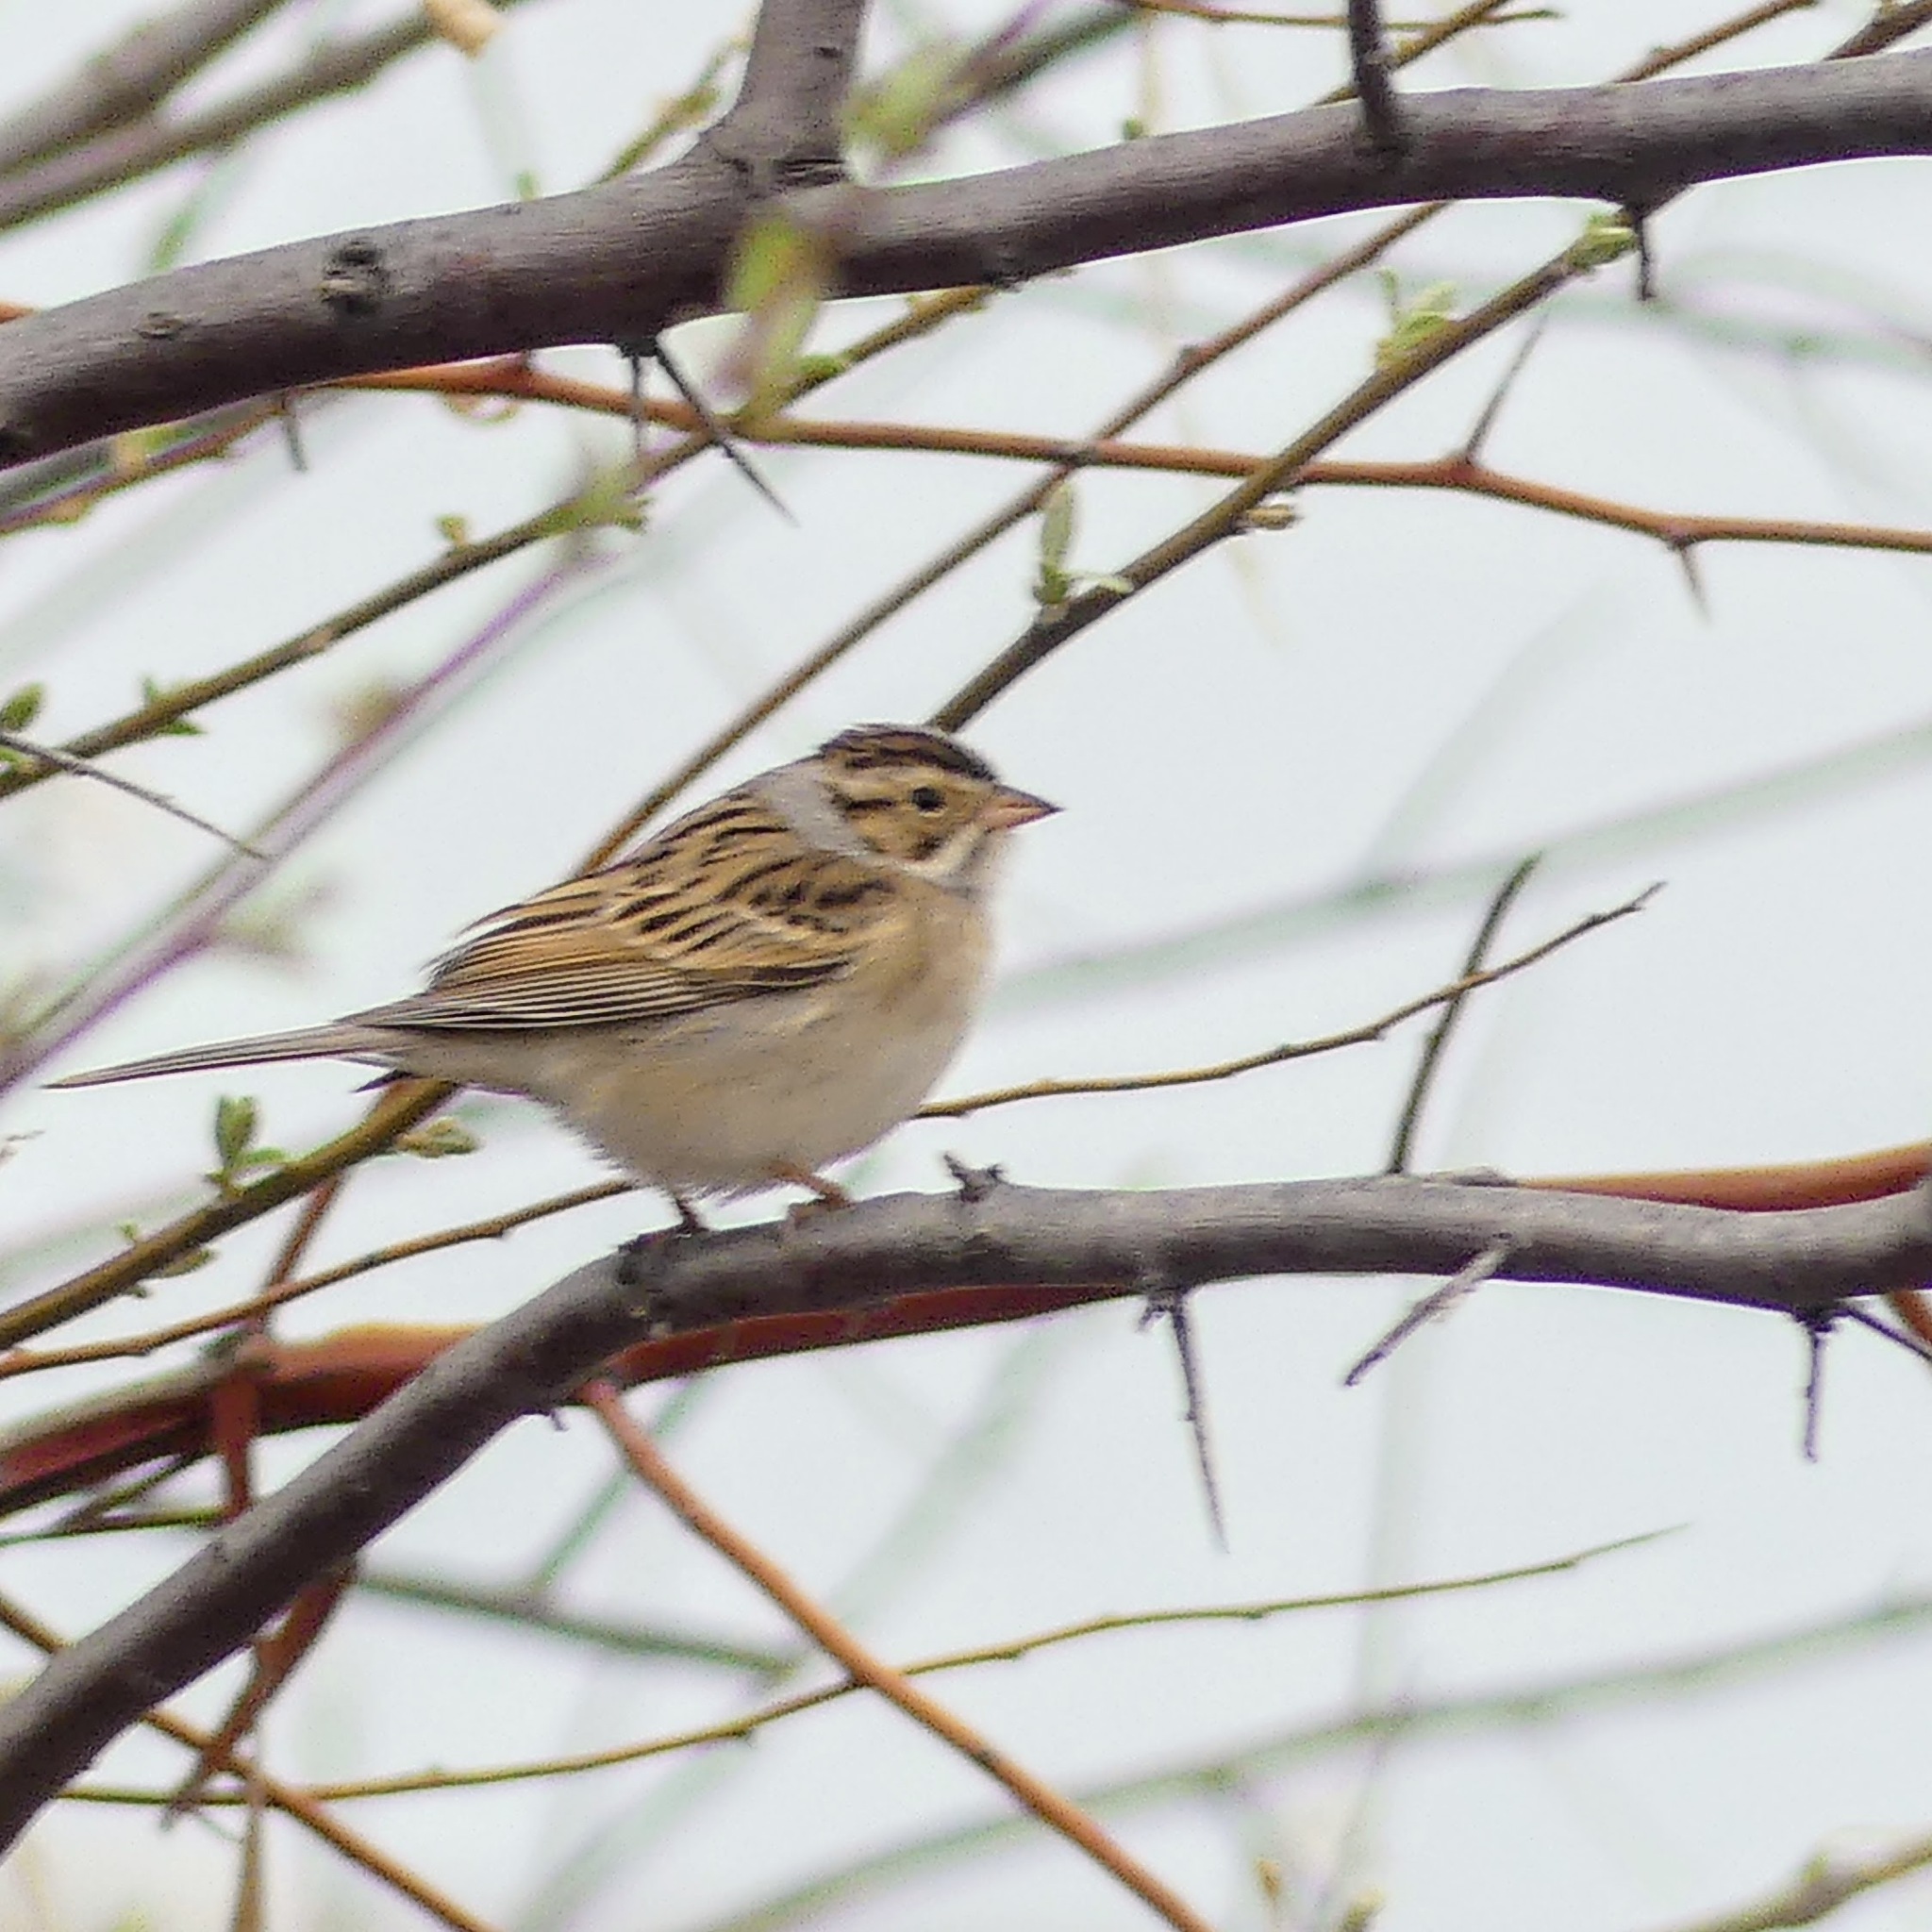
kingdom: Animalia
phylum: Chordata
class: Aves
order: Passeriformes
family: Passerellidae
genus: Spizella
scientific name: Spizella pallida
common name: Clay-colored sparrow
